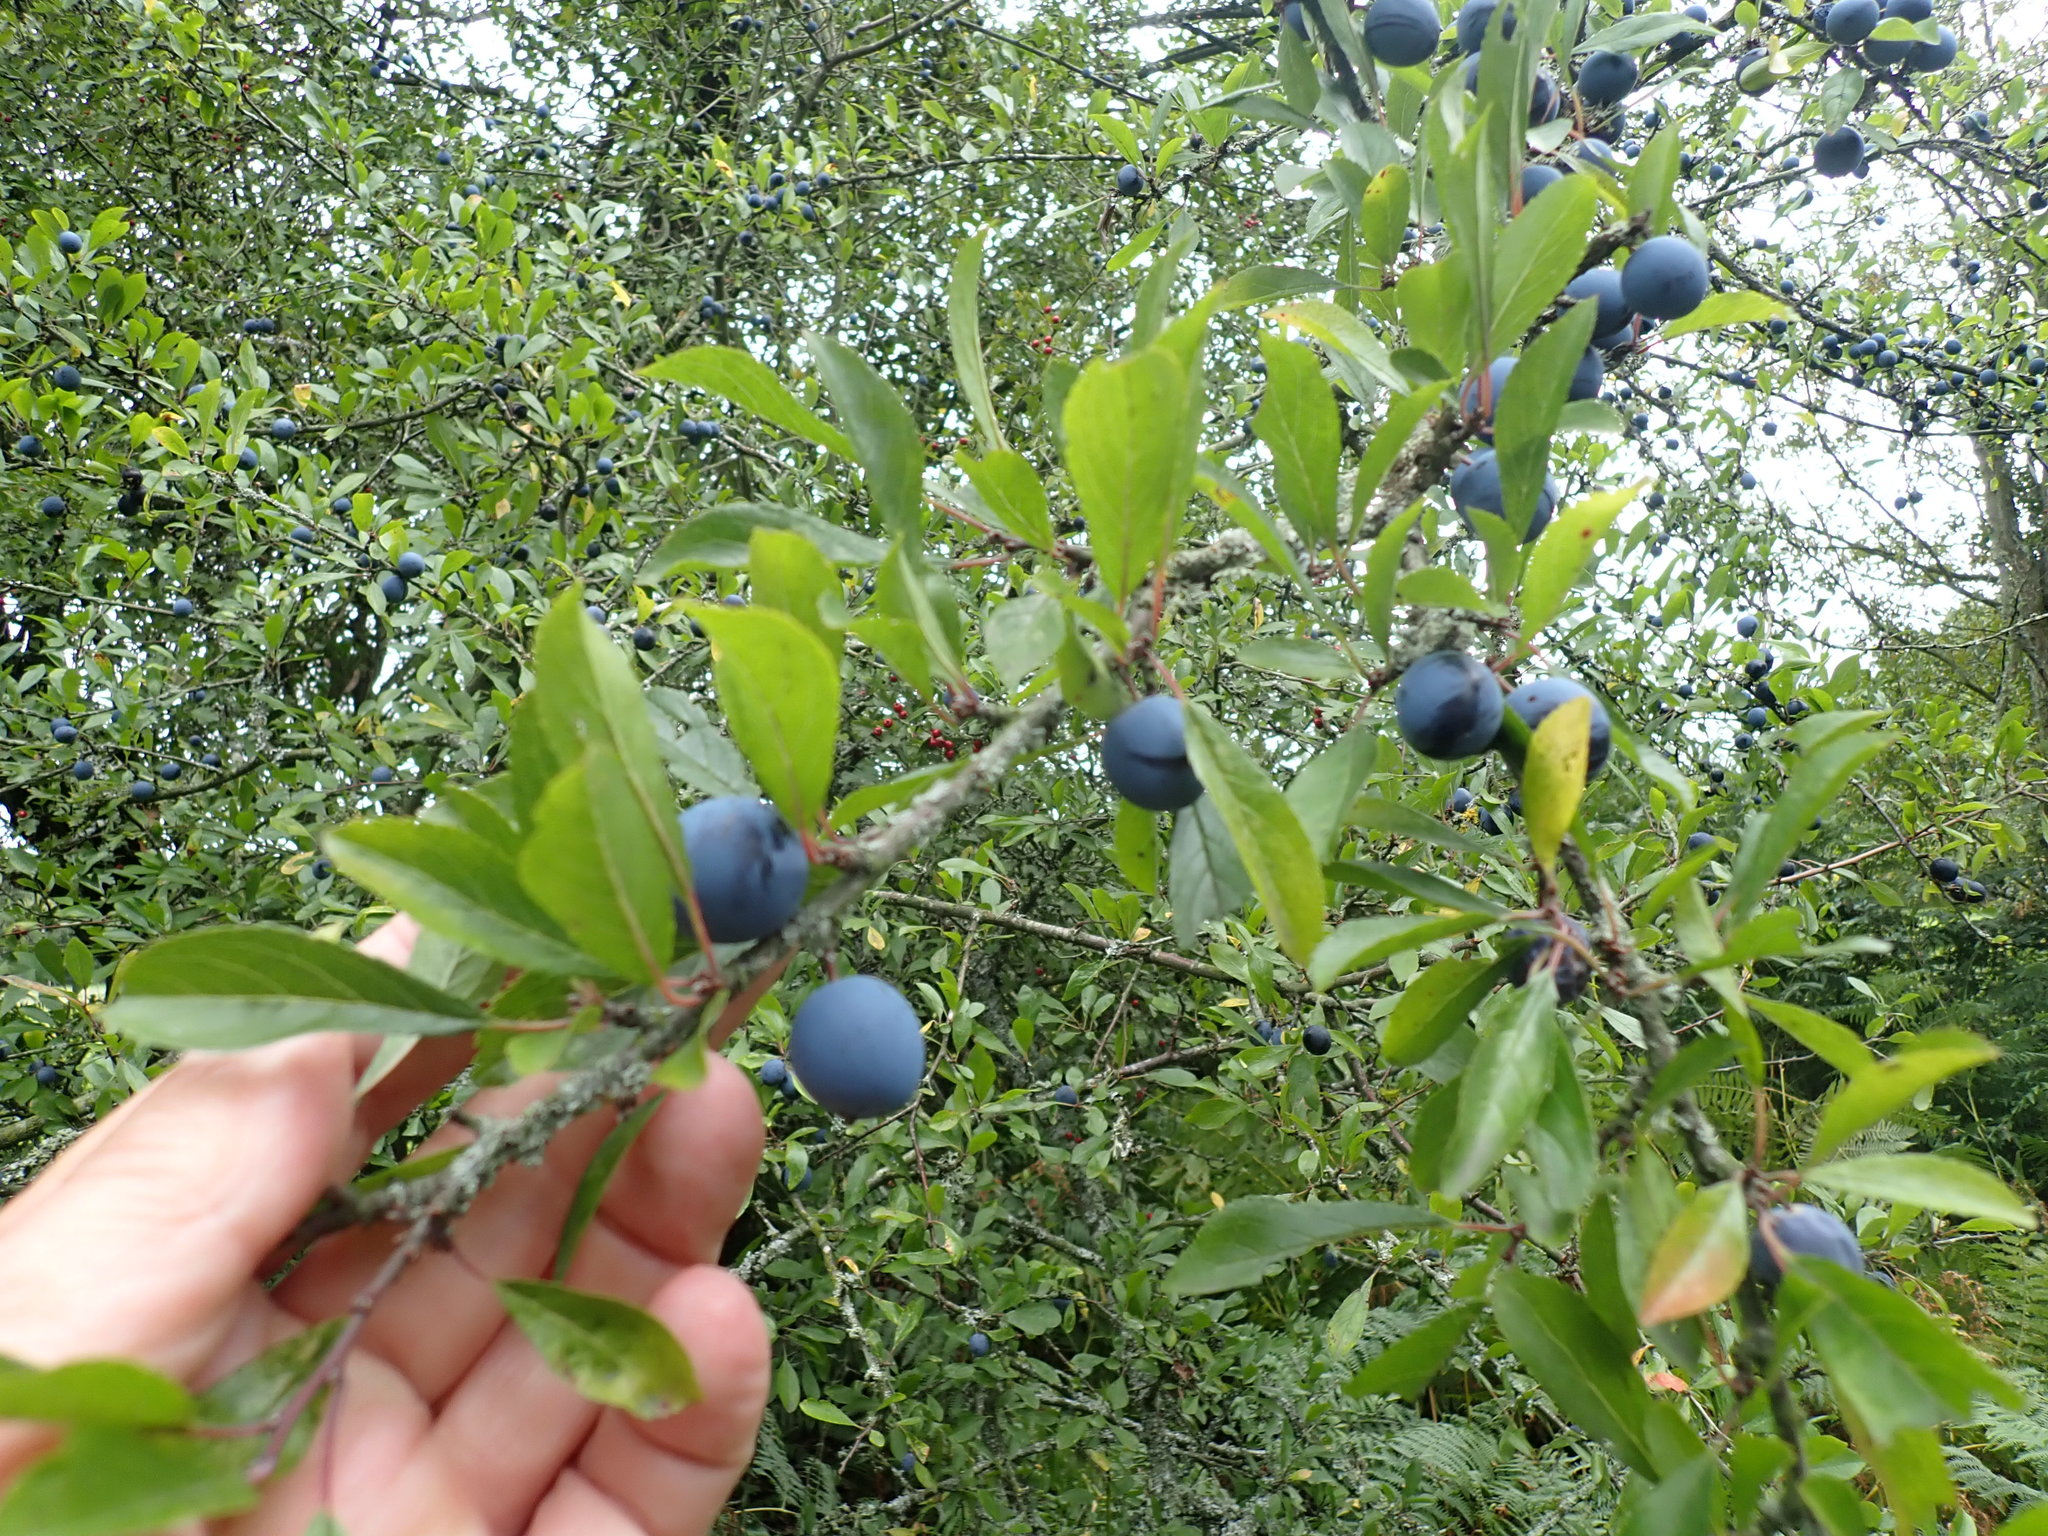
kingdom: Plantae
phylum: Tracheophyta
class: Magnoliopsida
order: Rosales
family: Rosaceae
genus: Prunus
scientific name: Prunus spinosa
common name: Blackthorn
